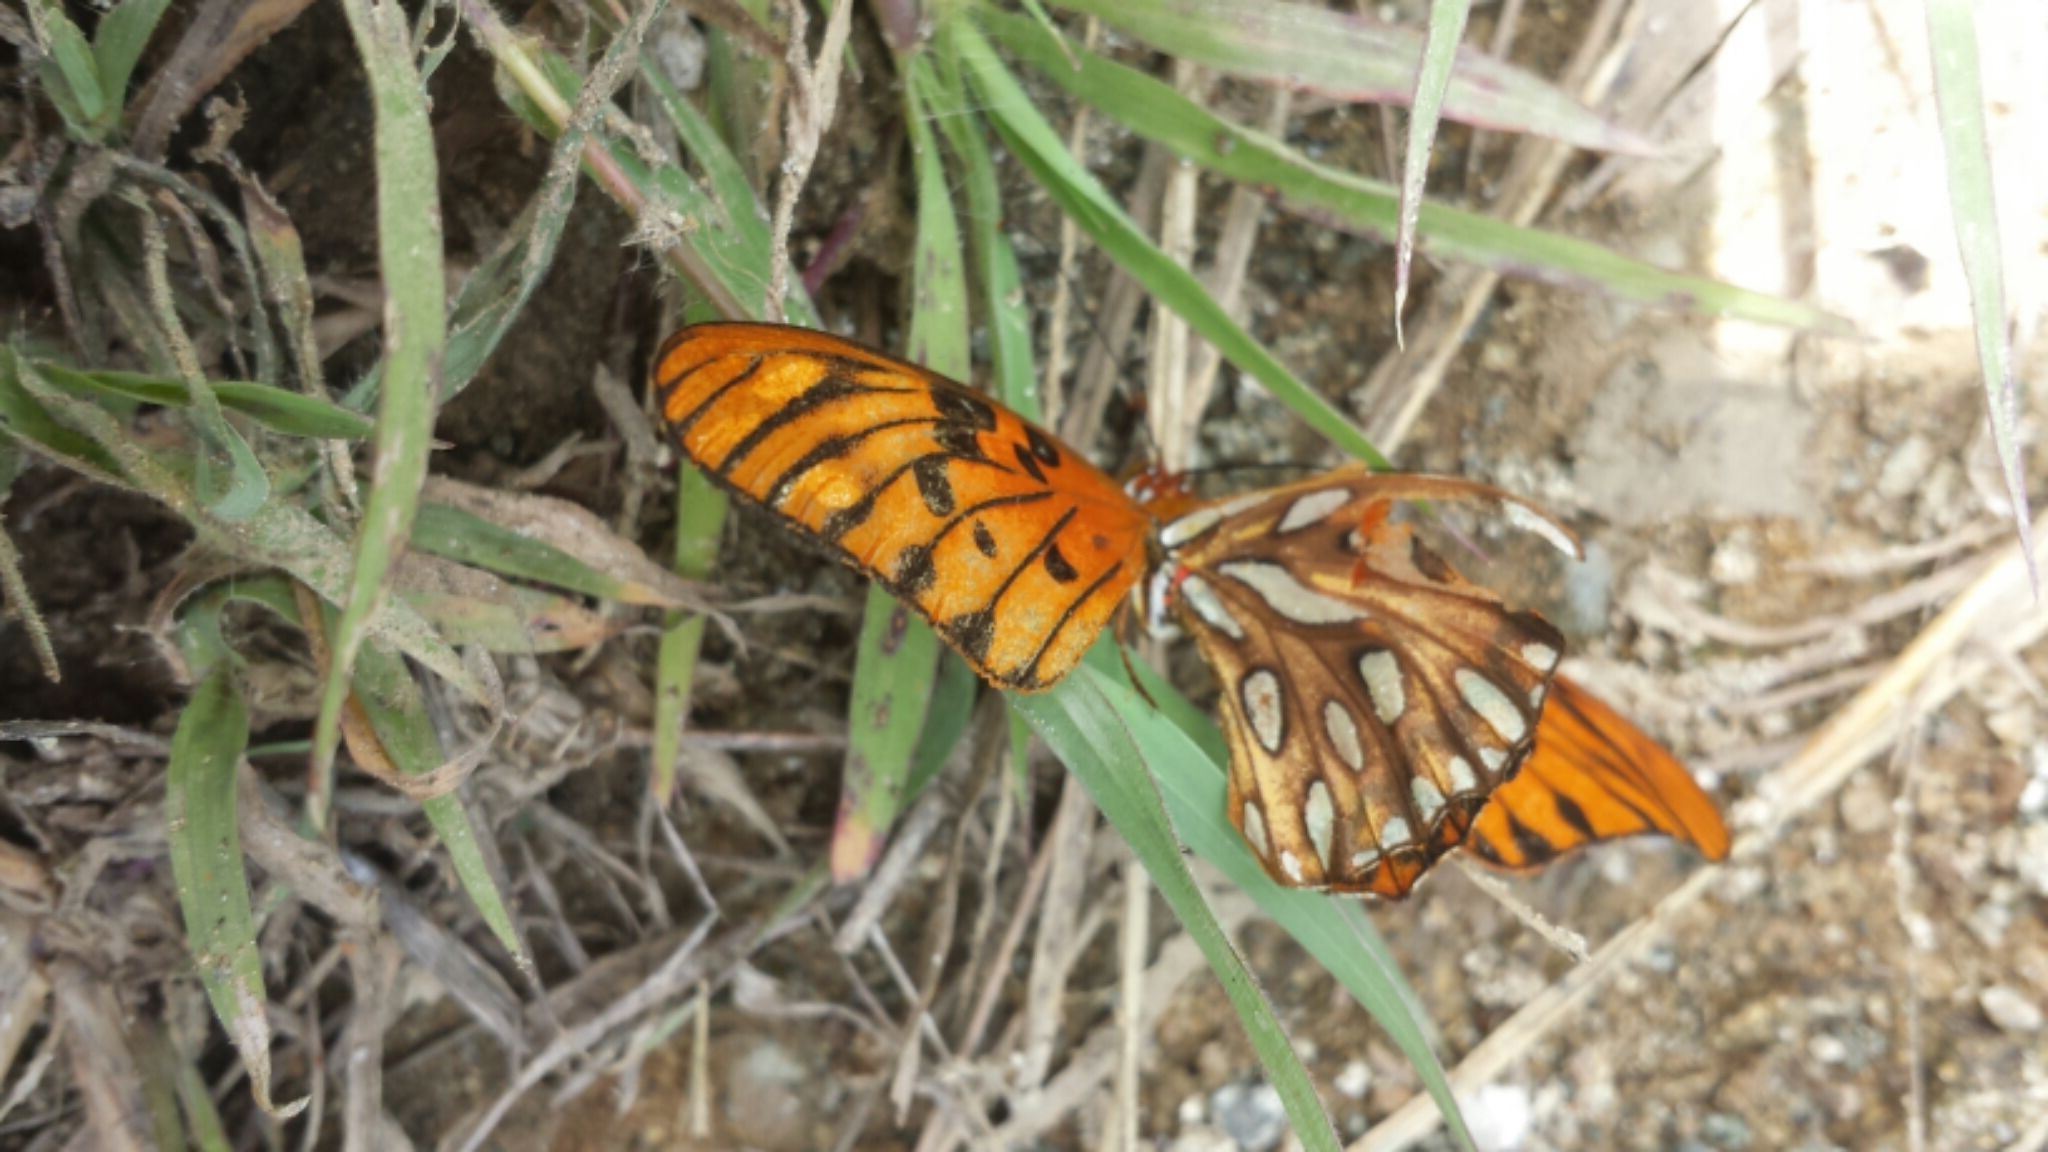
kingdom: Animalia
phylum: Arthropoda
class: Insecta
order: Lepidoptera
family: Nymphalidae
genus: Dione
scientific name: Dione vanillae
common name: Gulf fritillary
